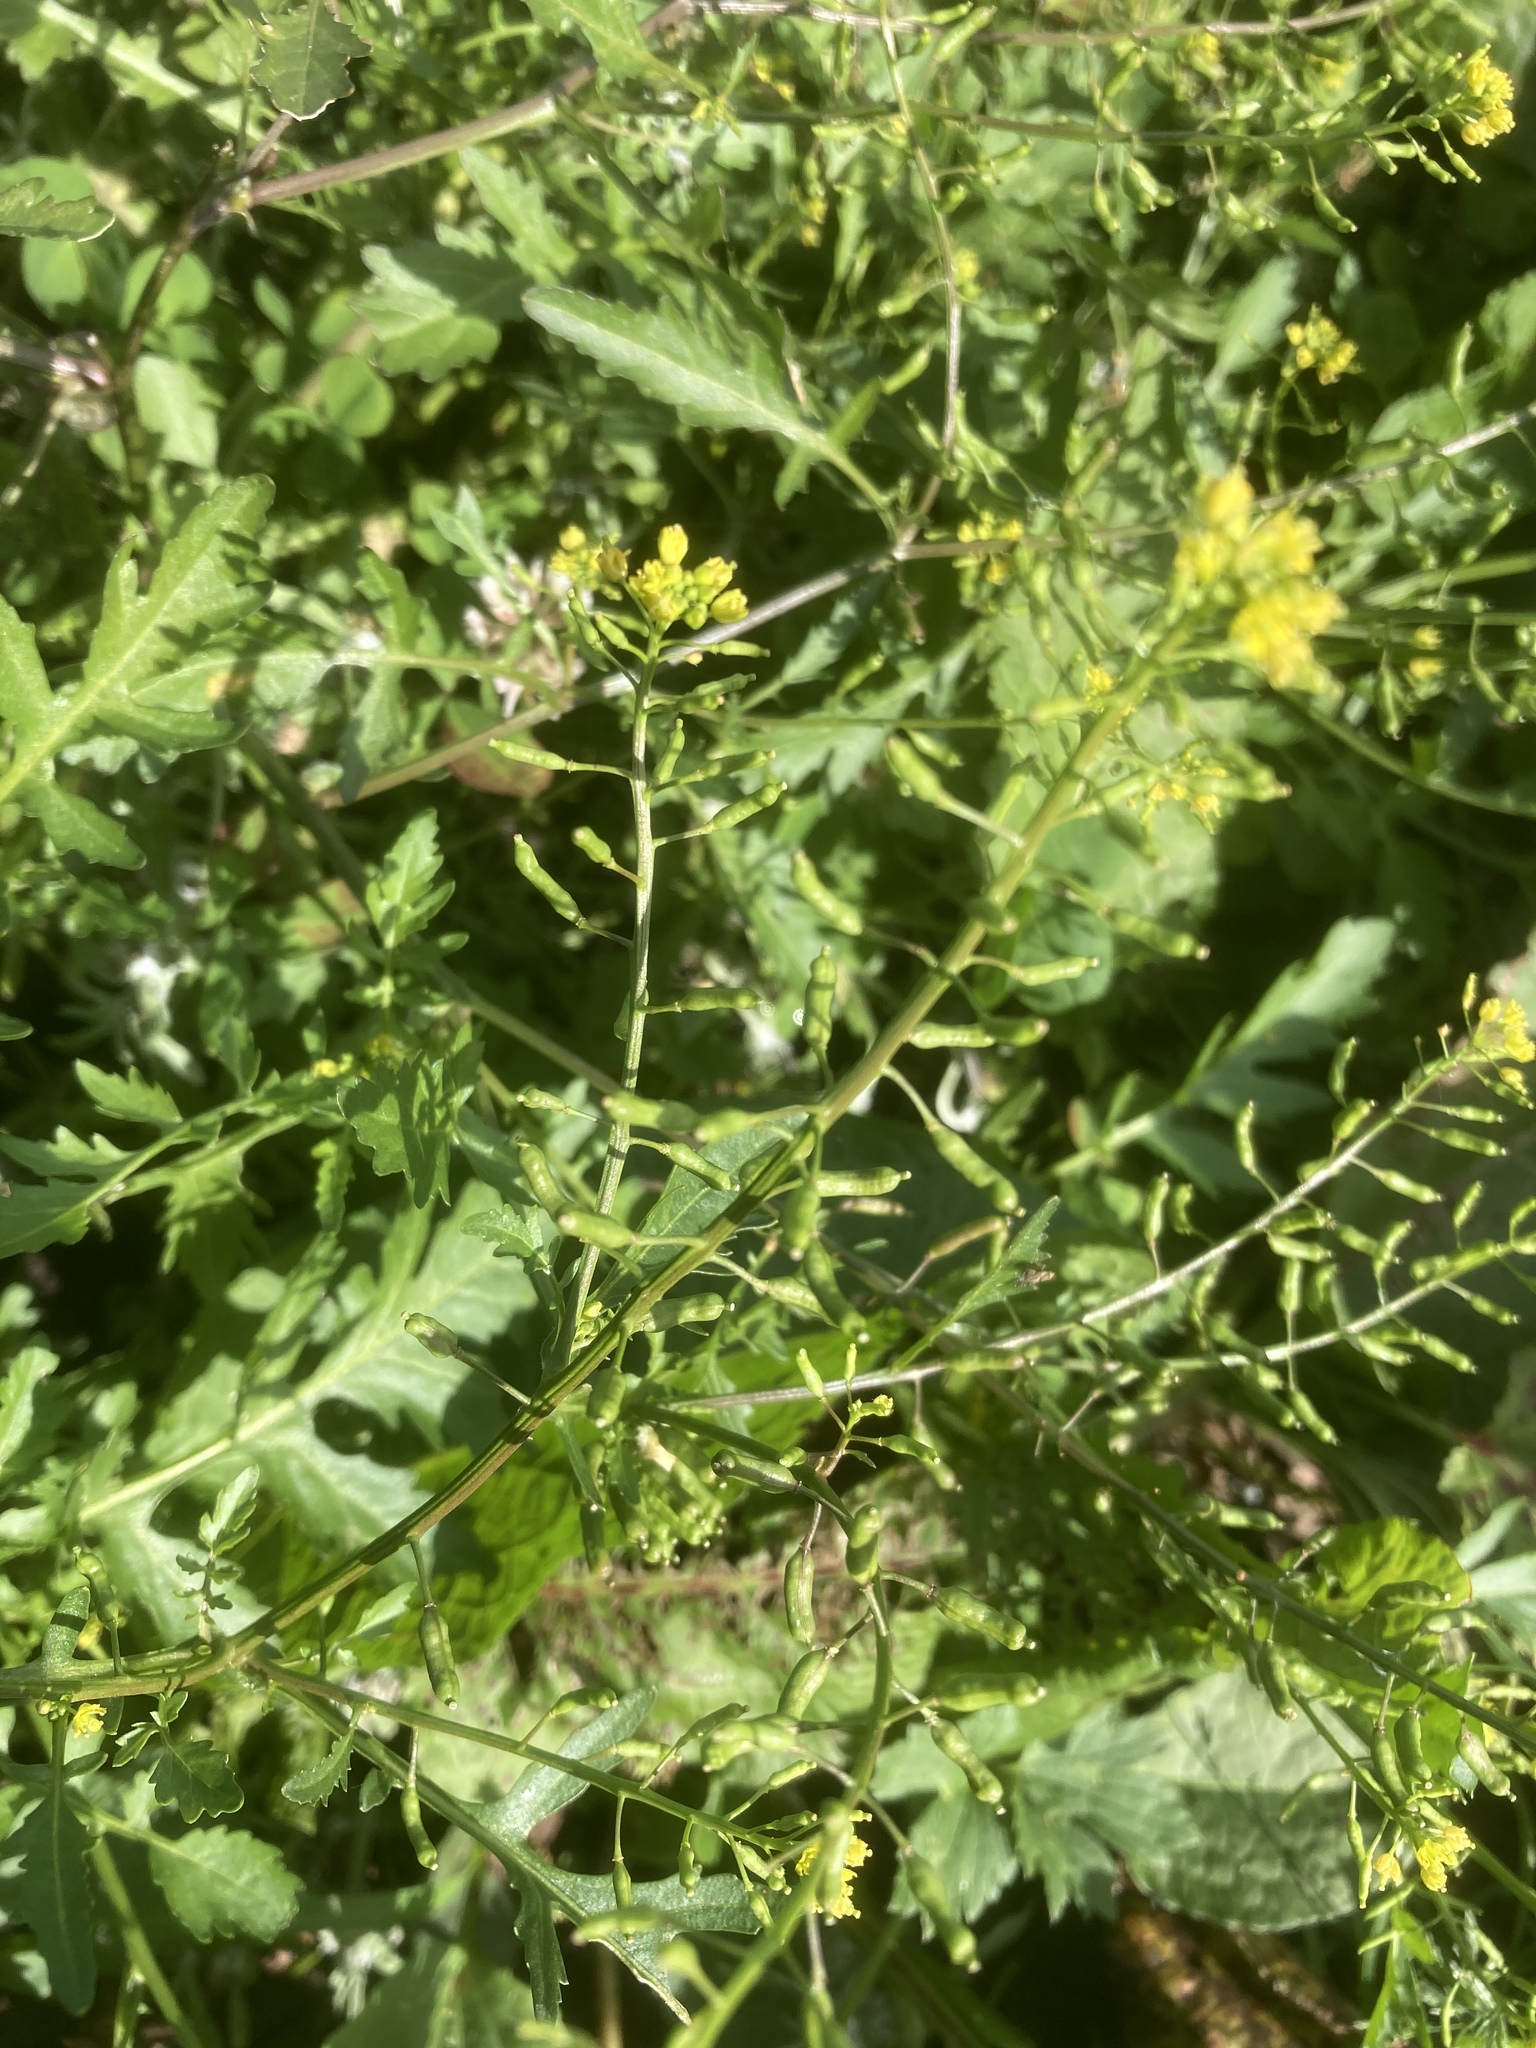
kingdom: Plantae
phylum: Tracheophyta
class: Magnoliopsida
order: Brassicales
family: Brassicaceae
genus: Rorippa
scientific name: Rorippa palustris
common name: Marsh yellow-cress
